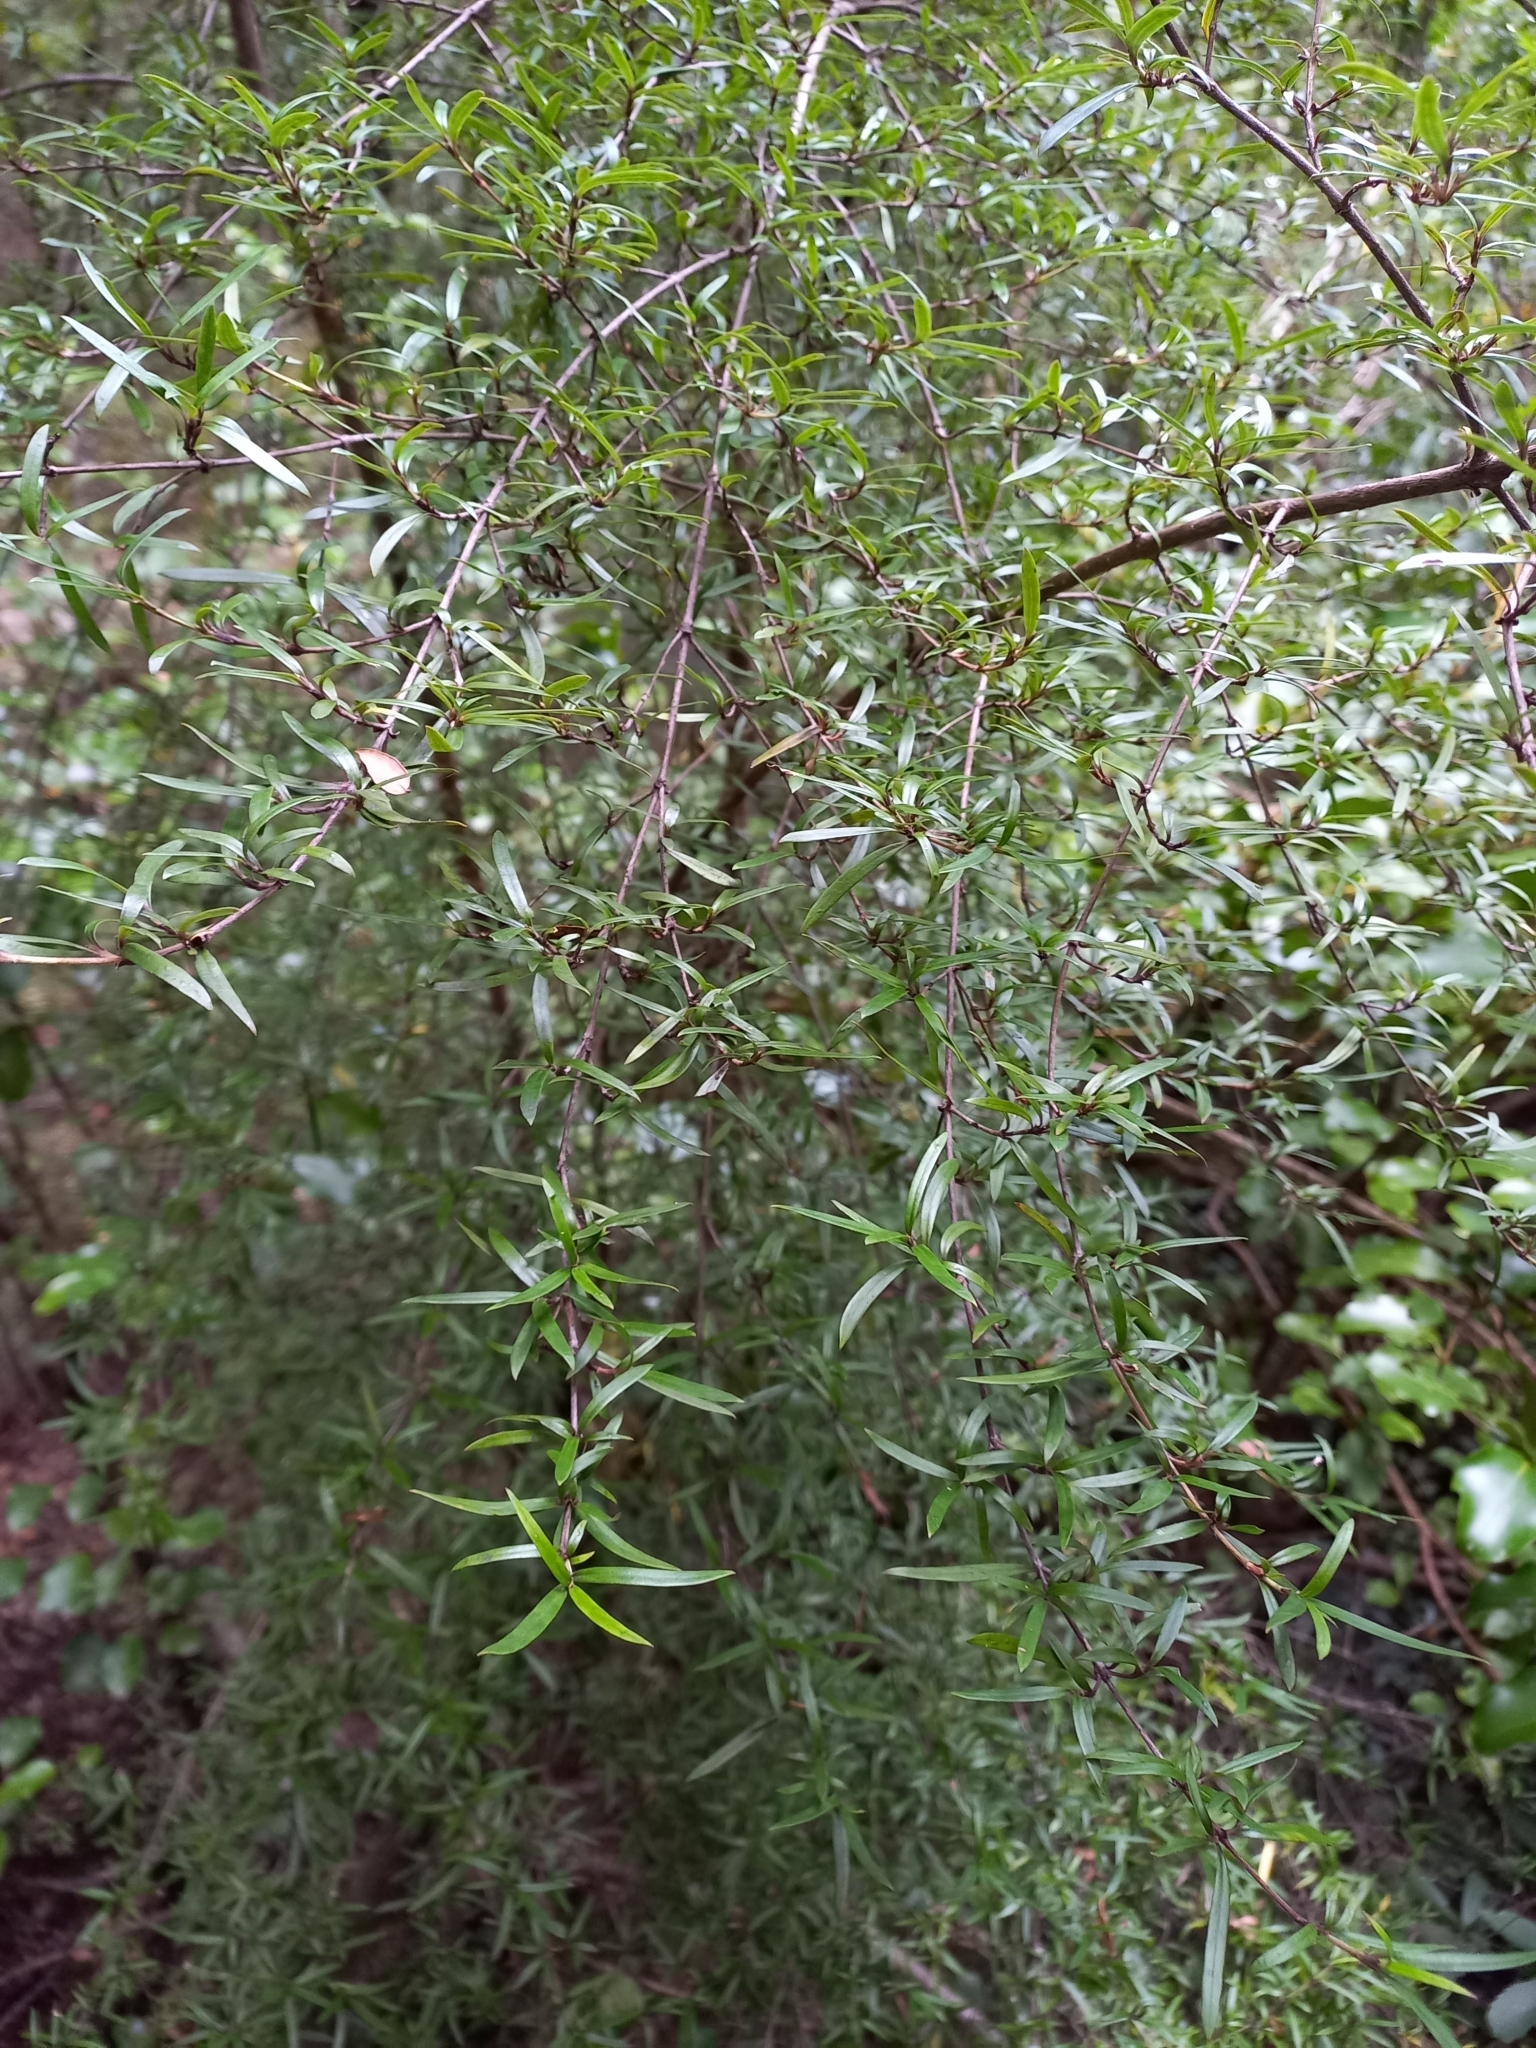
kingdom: Plantae
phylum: Tracheophyta
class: Magnoliopsida
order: Gentianales
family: Rubiaceae
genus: Coprosma
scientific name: Coprosma linariifolia
